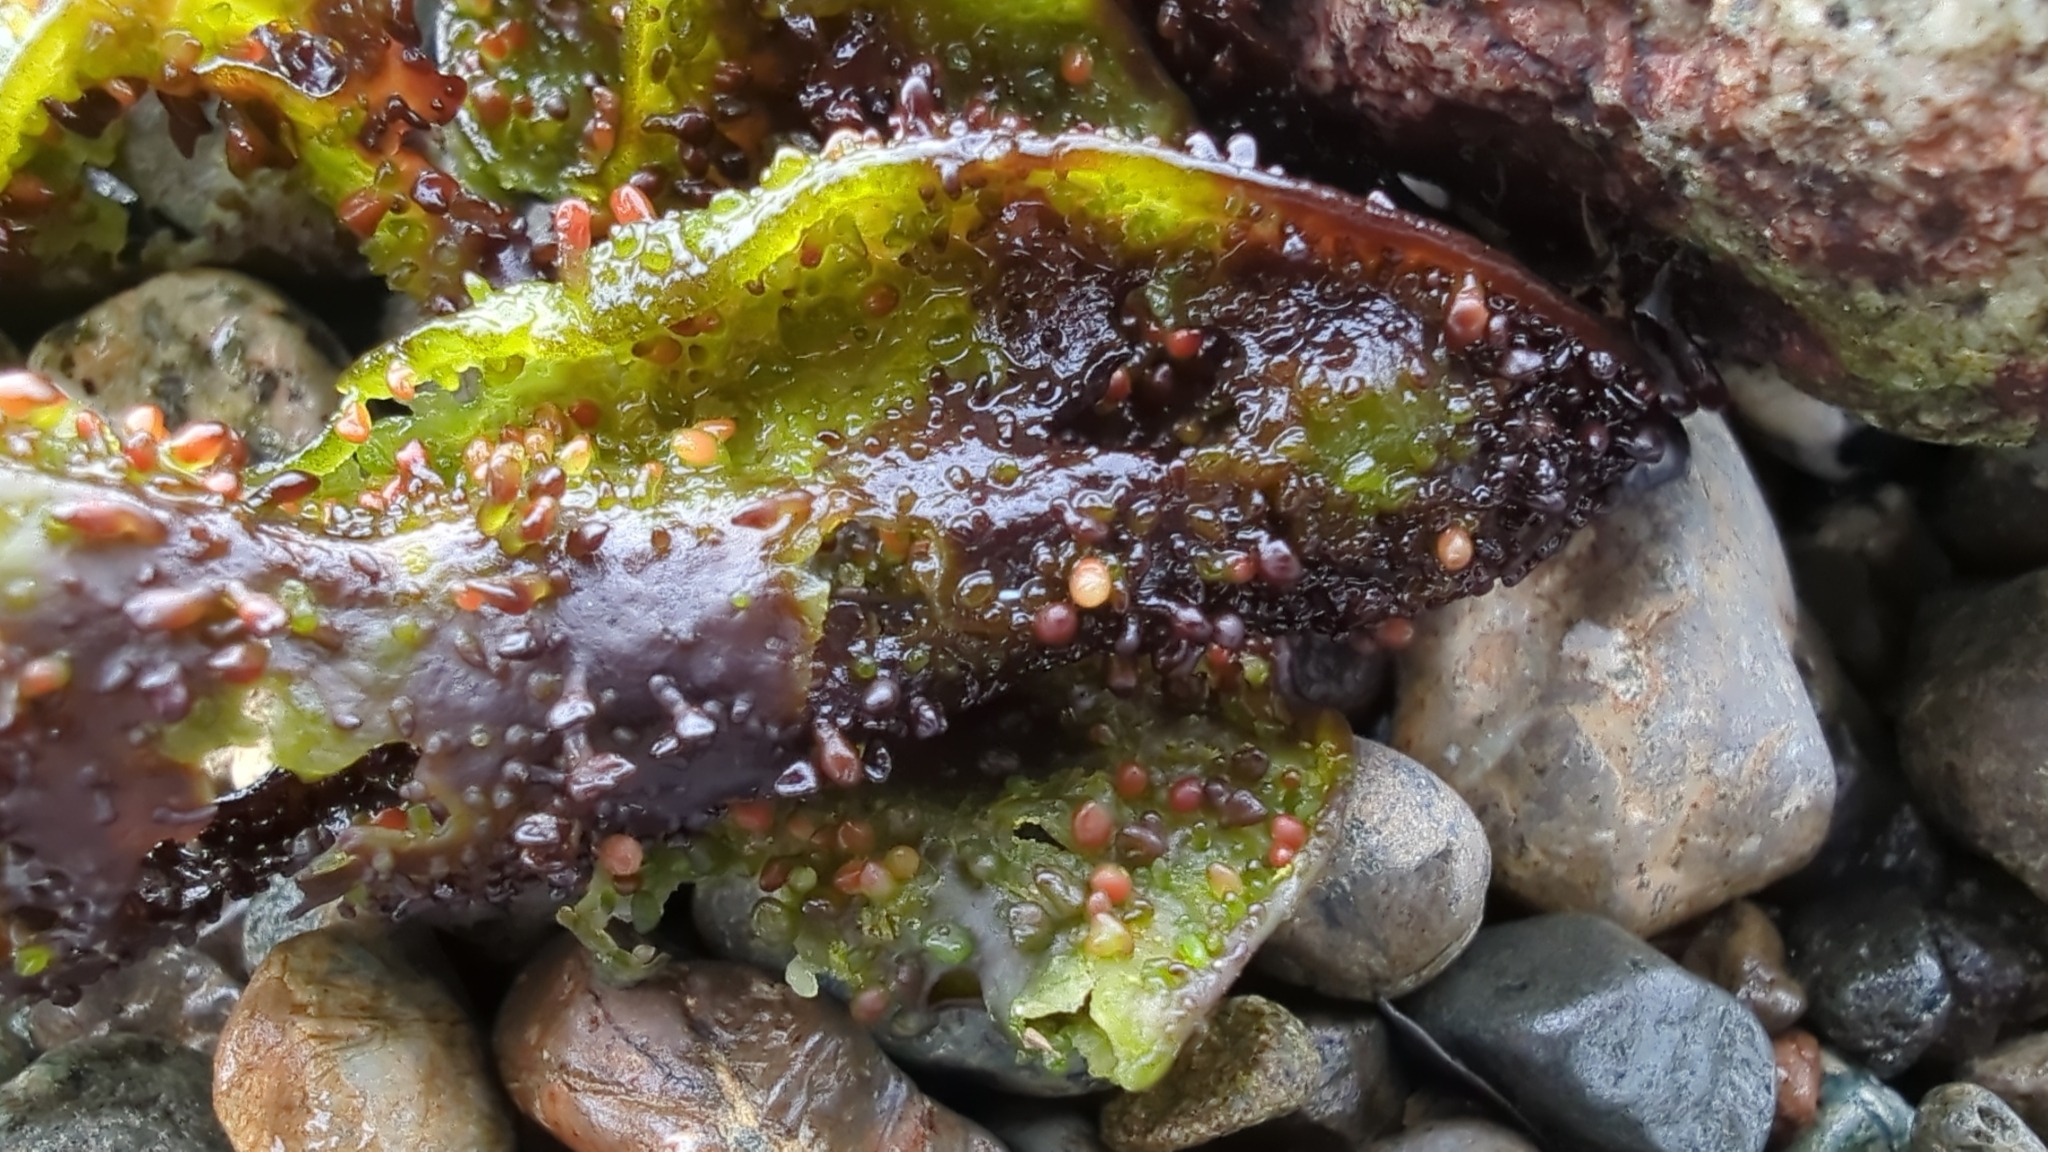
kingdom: Plantae
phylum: Rhodophyta
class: Florideophyceae
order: Gigartinales
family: Phyllophoraceae
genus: Mastocarpus
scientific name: Mastocarpus papillatus
